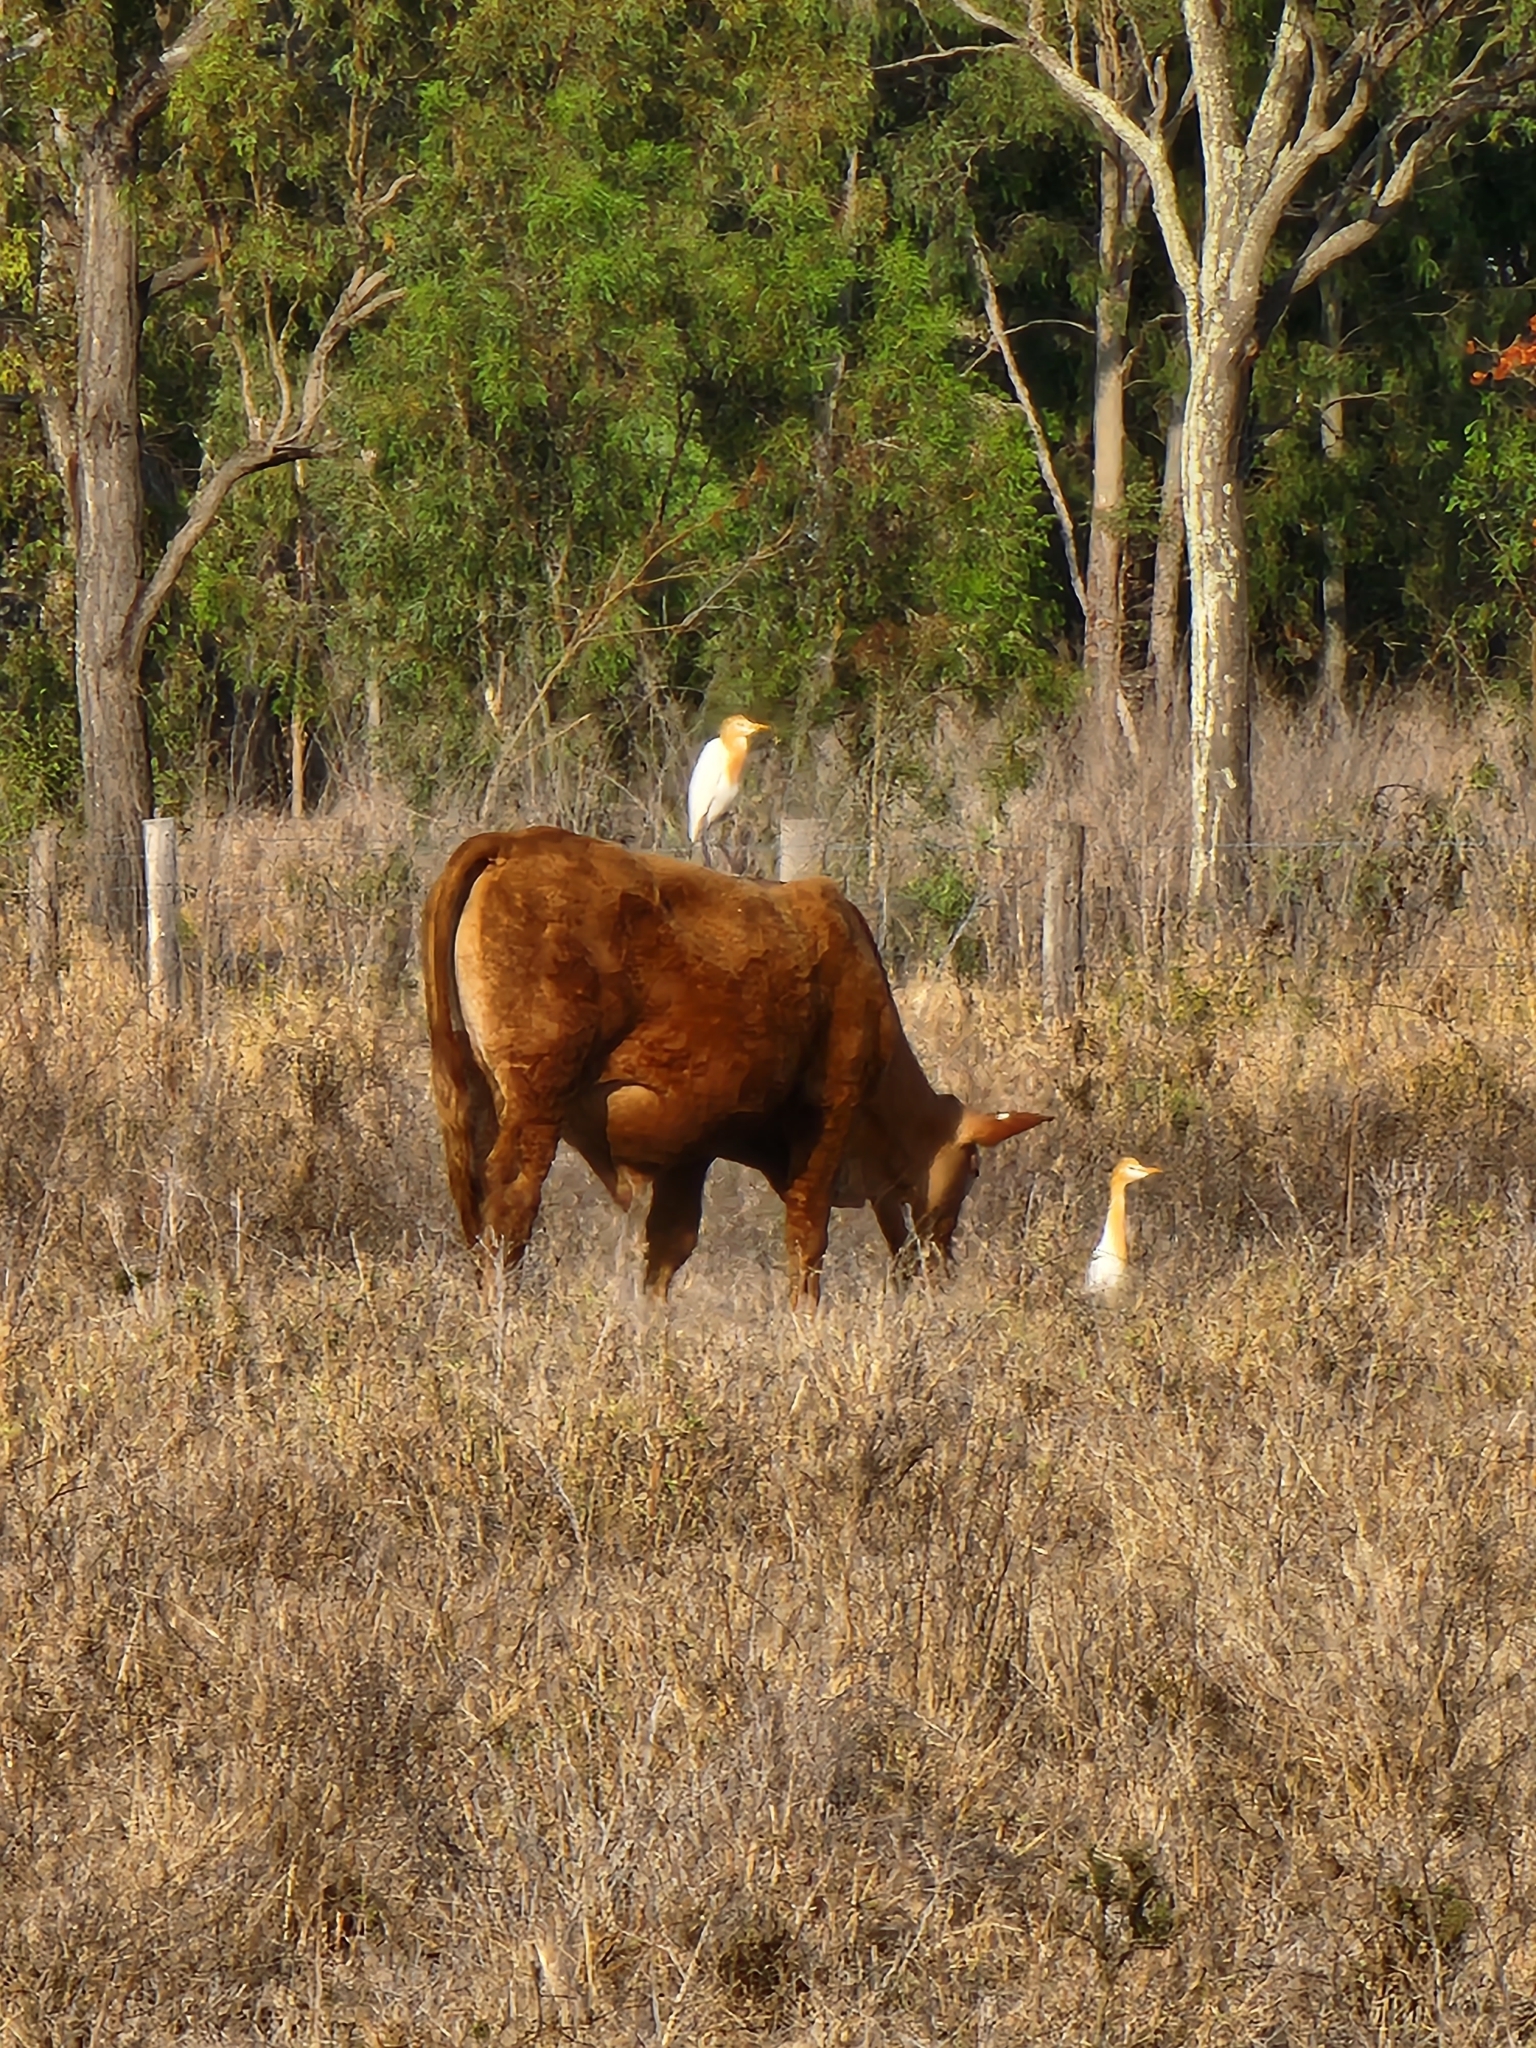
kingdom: Animalia
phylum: Chordata
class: Aves
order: Pelecaniformes
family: Ardeidae
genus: Bubulcus
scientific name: Bubulcus coromandus
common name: Eastern cattle egret
